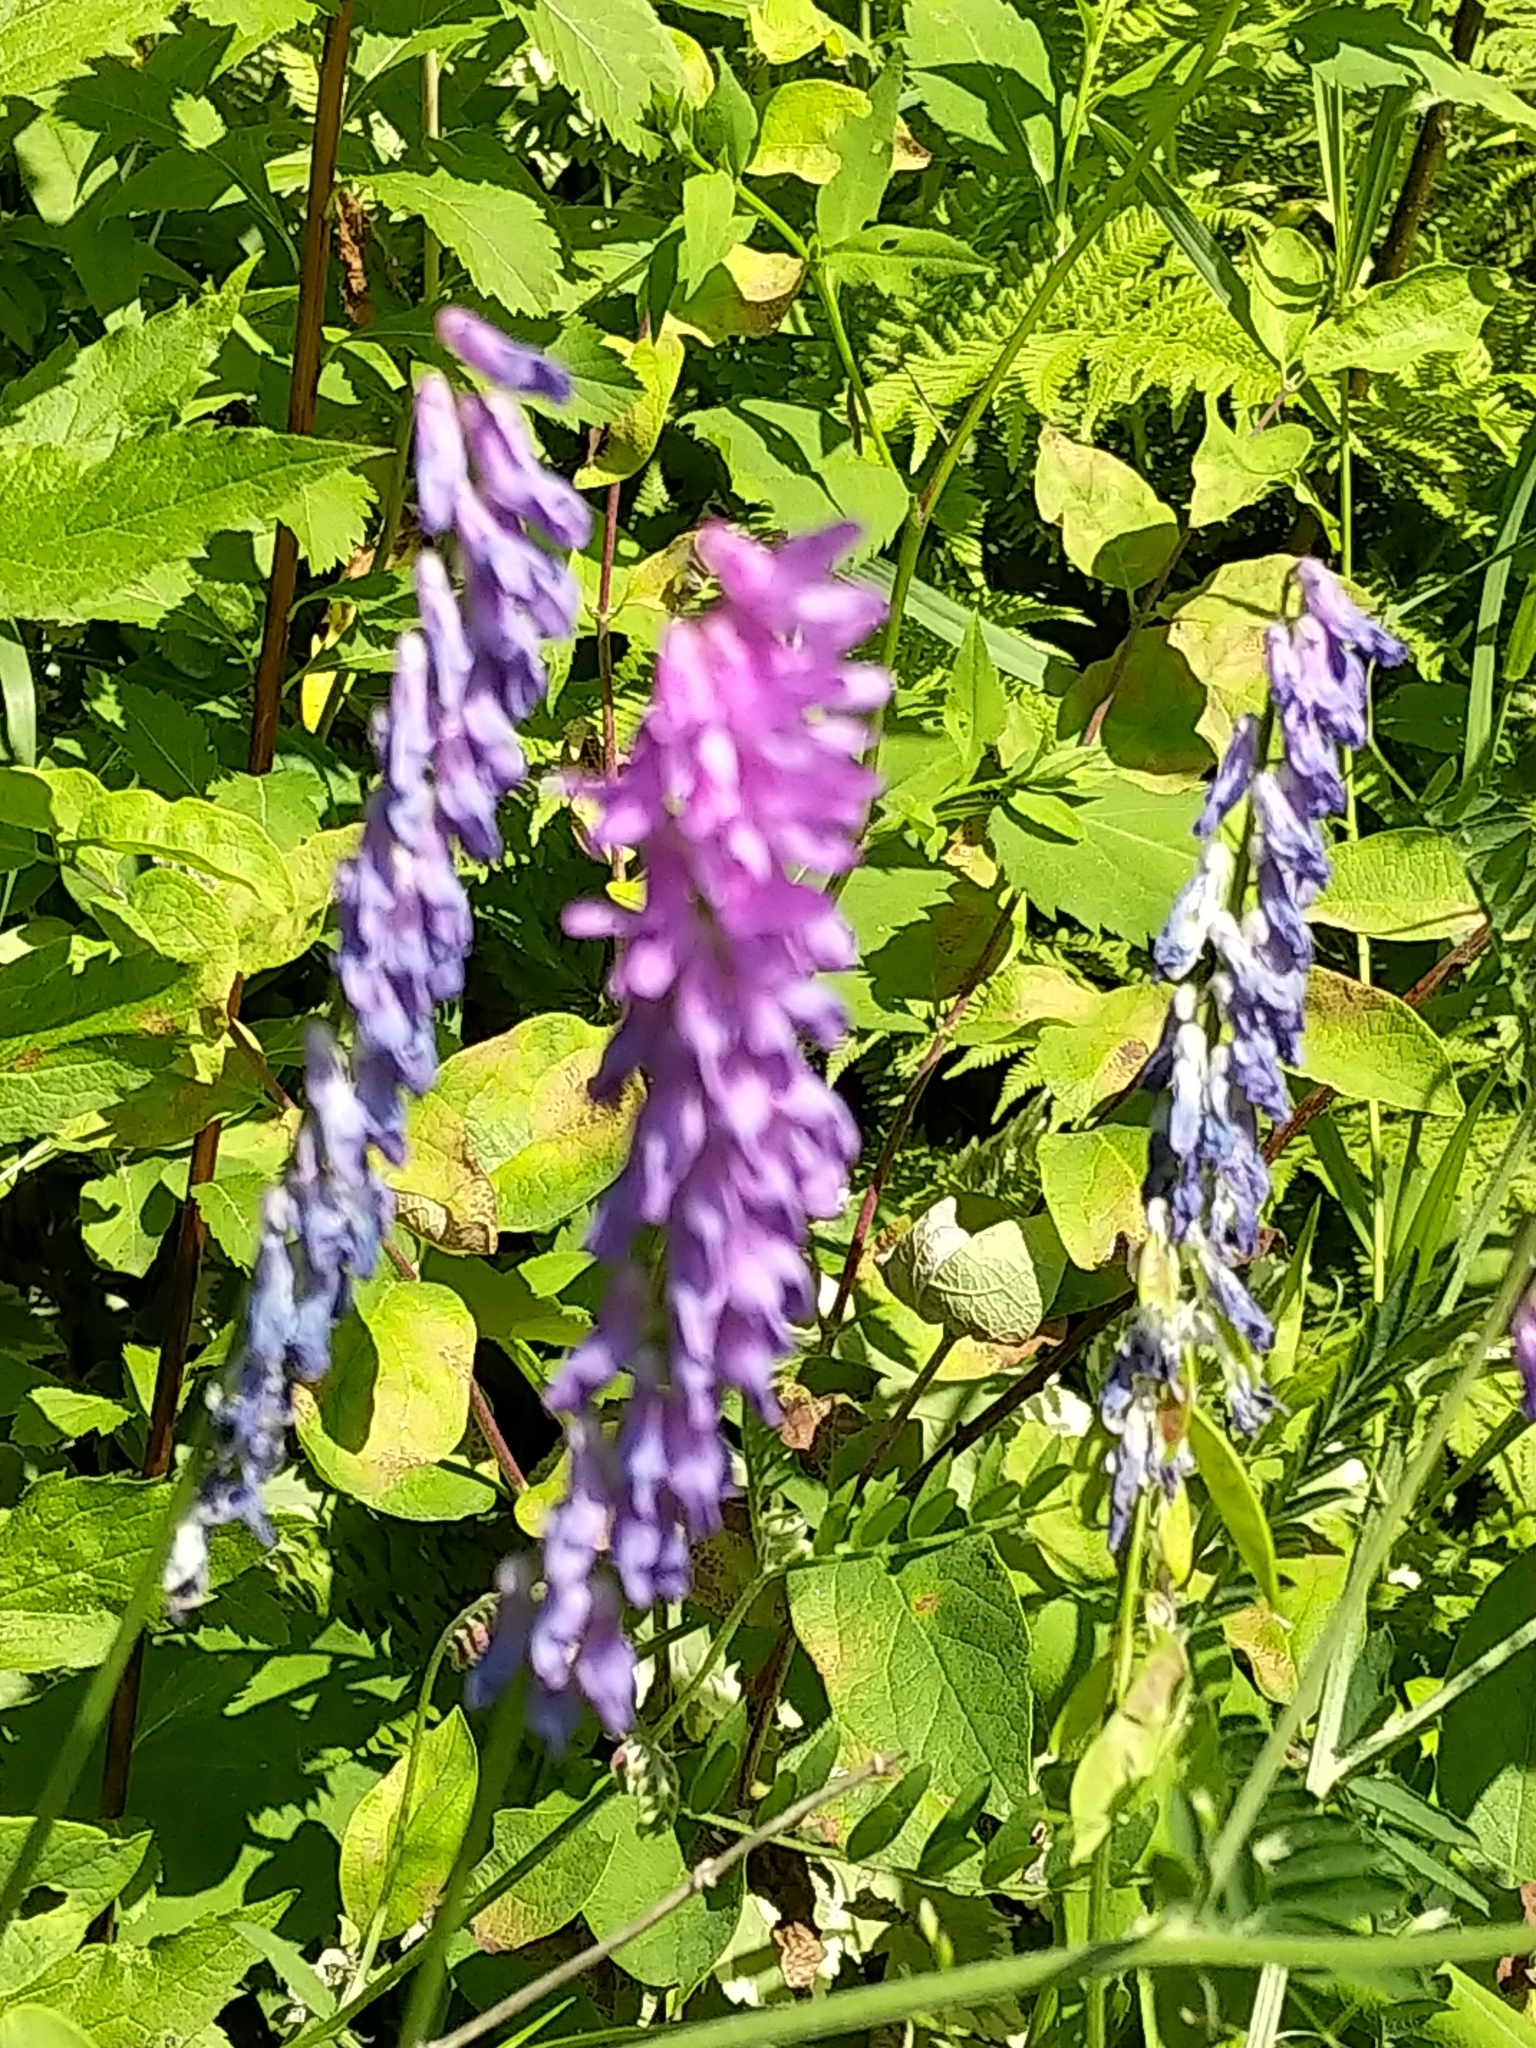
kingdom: Plantae
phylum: Tracheophyta
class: Magnoliopsida
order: Fabales
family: Fabaceae
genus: Vicia
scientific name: Vicia cracca
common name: Bird vetch
